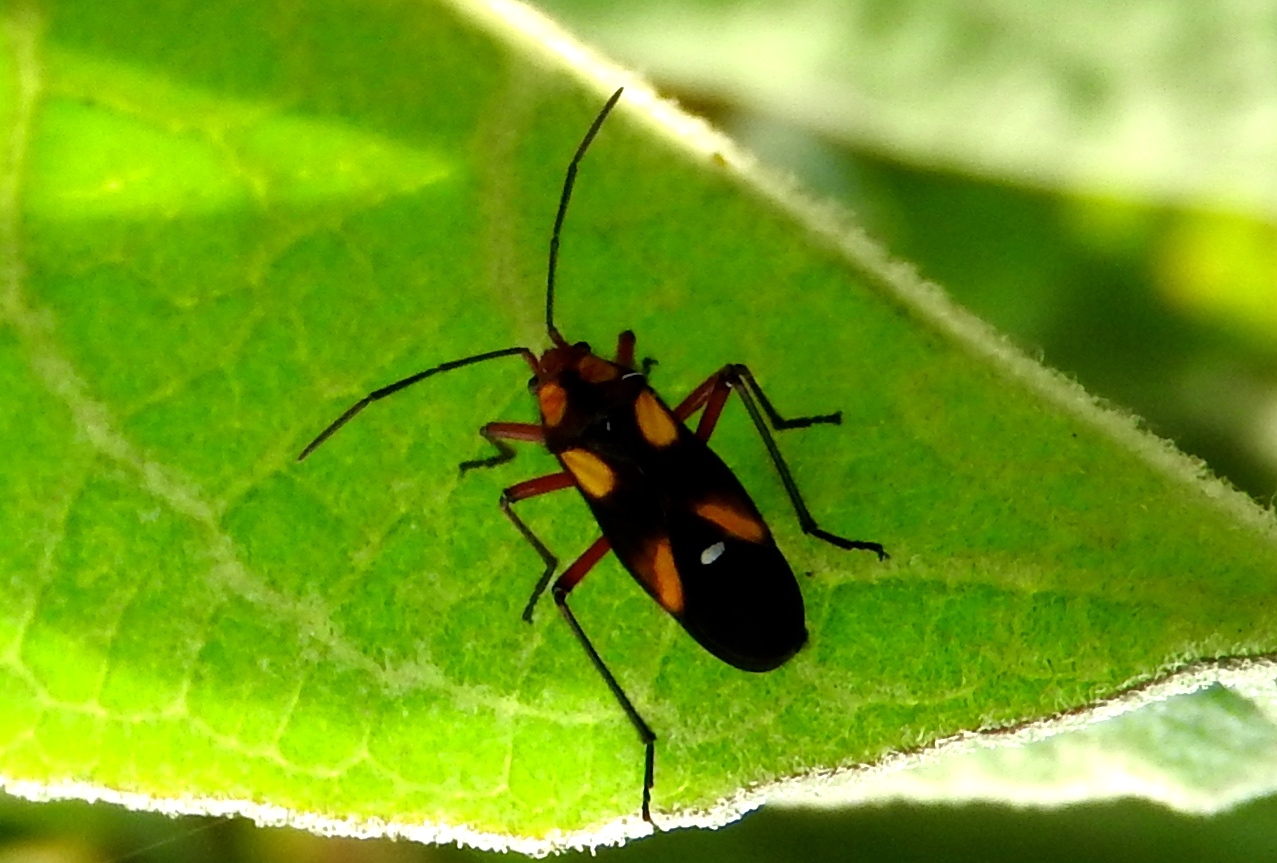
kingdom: Animalia
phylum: Arthropoda
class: Insecta
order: Hemiptera
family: Lygaeidae
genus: Oncopeltus
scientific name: Oncopeltus sexmaculatus
